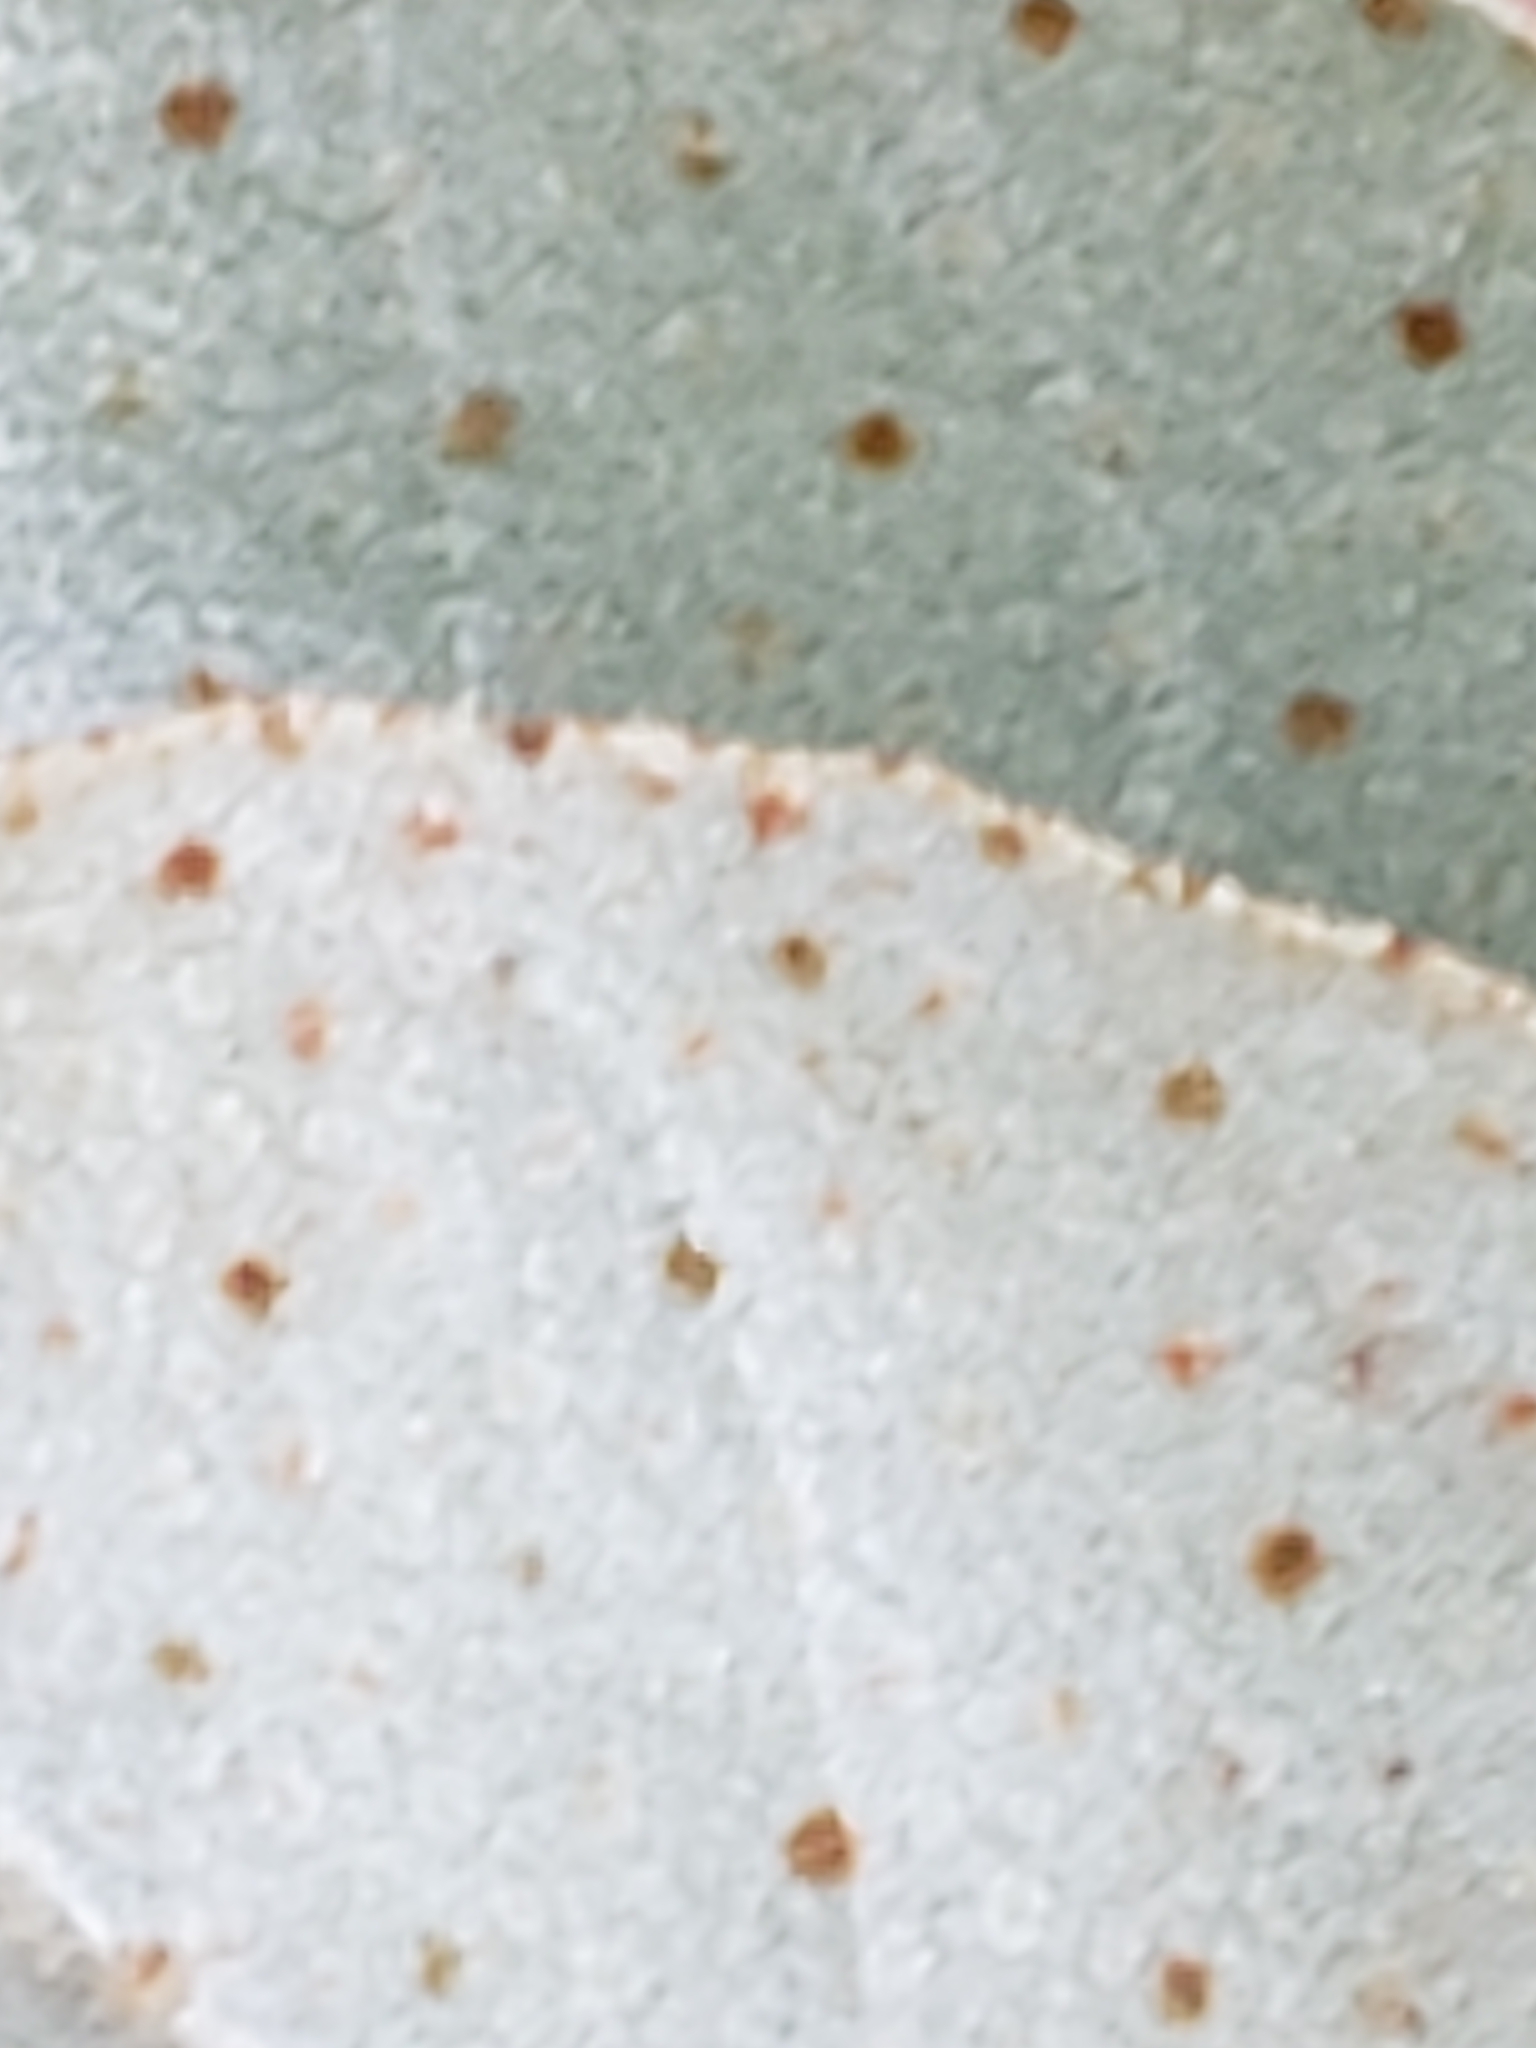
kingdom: Plantae
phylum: Tracheophyta
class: Magnoliopsida
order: Rosales
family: Elaeagnaceae
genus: Elaeagnus
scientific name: Elaeagnus pungens
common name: Spiny oleaster
